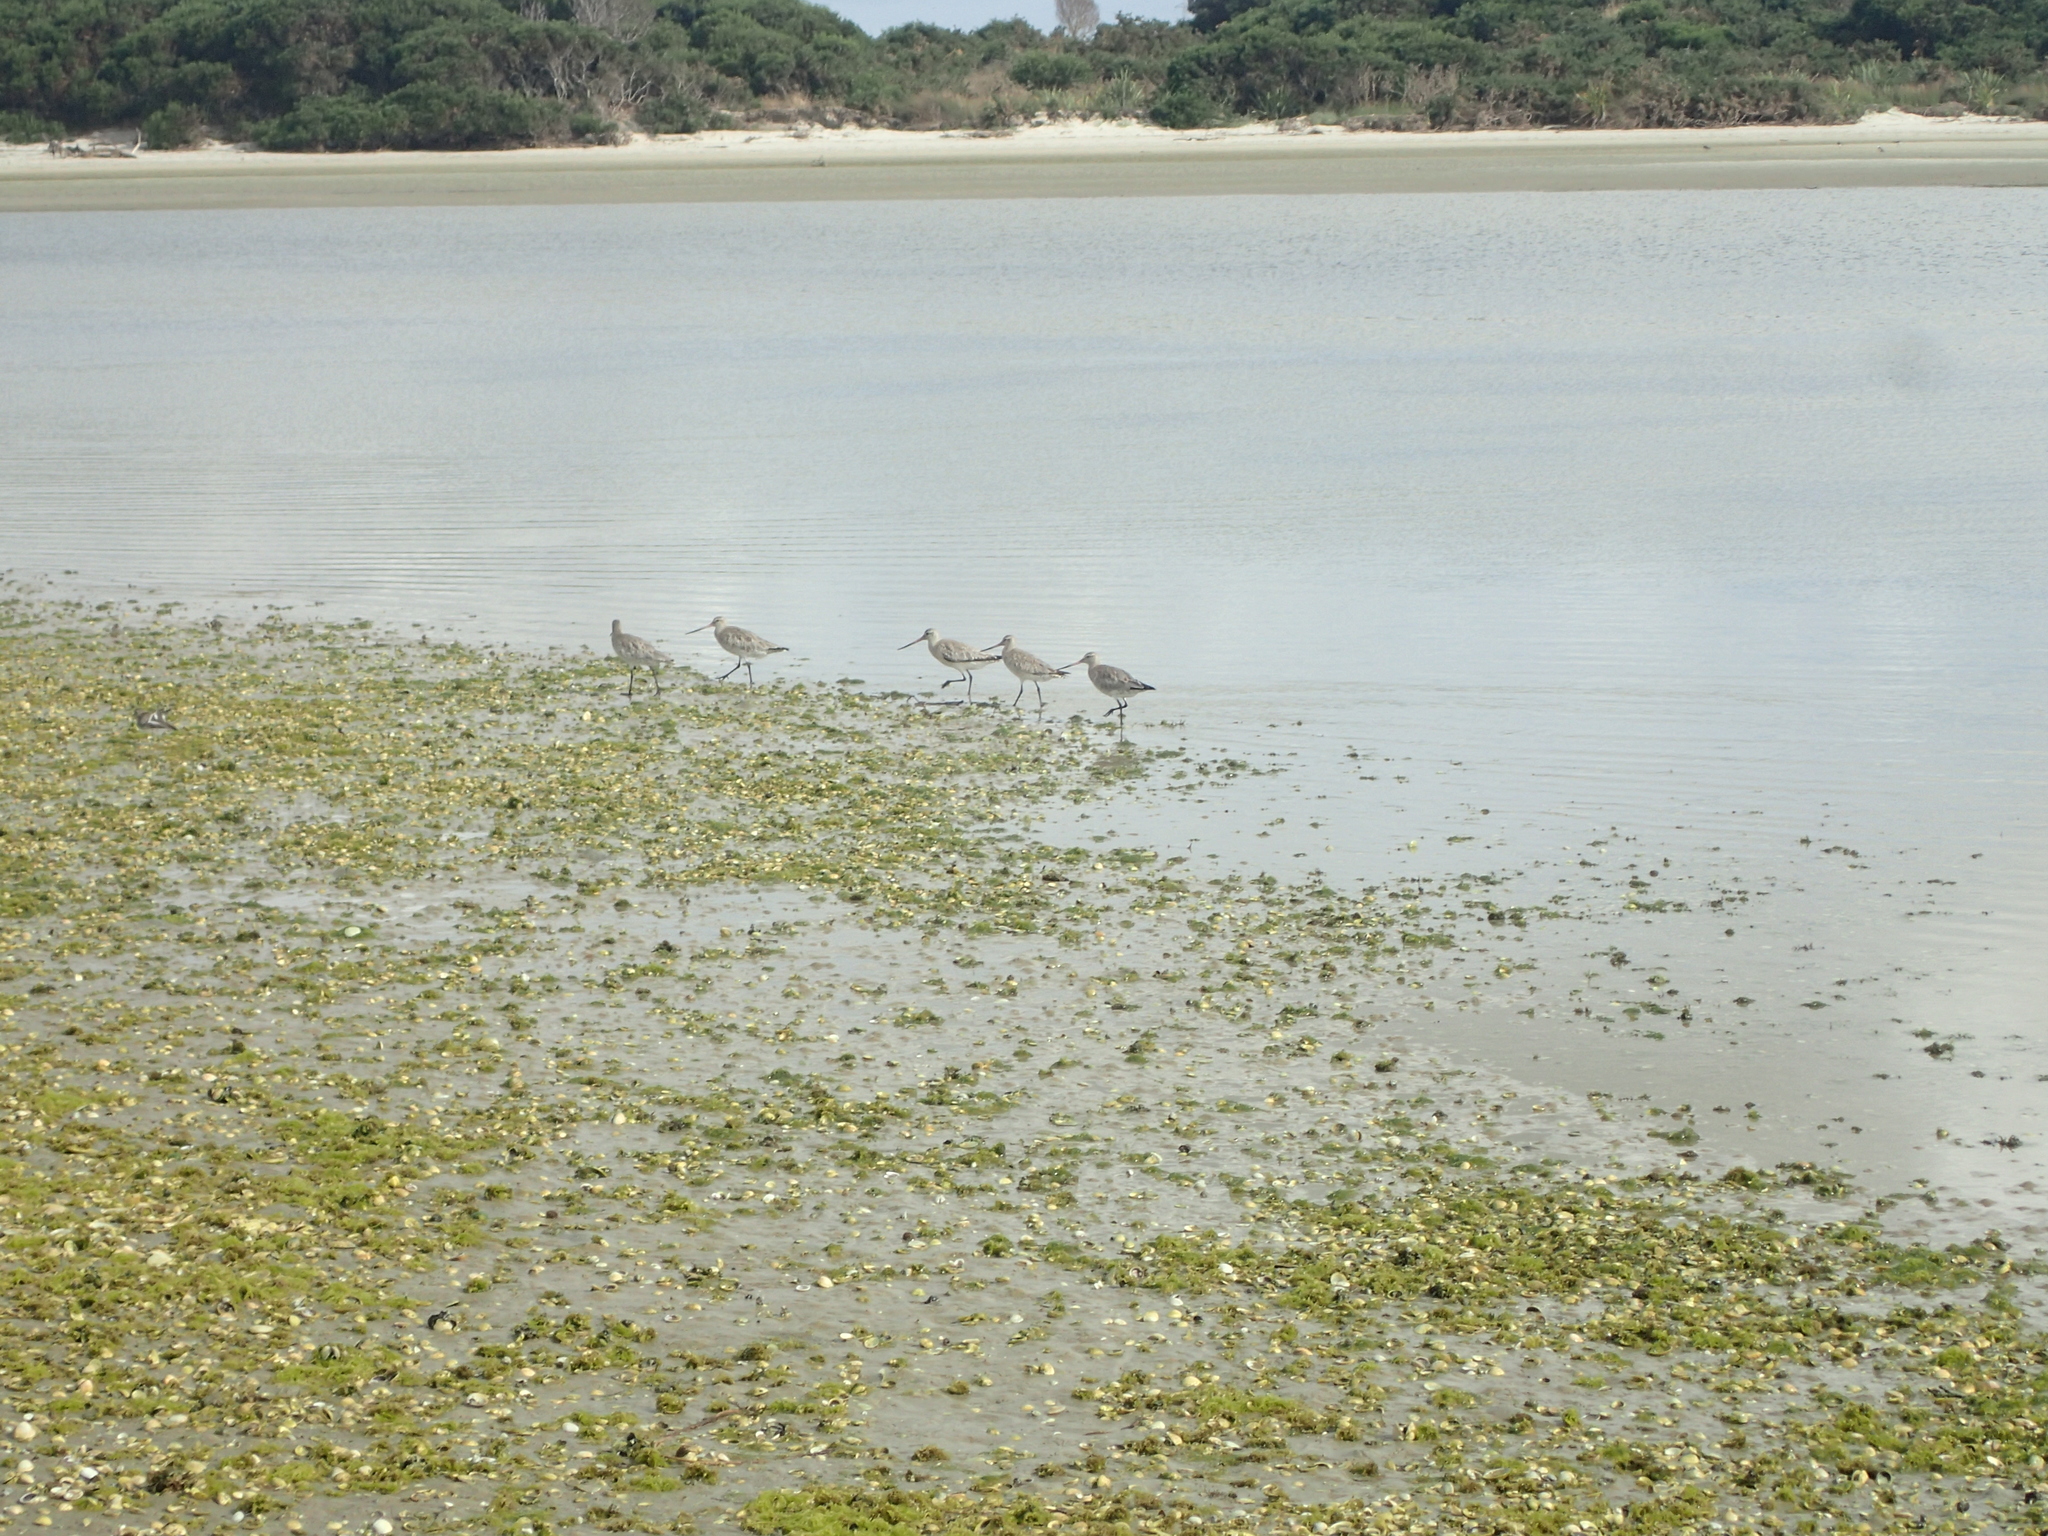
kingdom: Animalia
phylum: Chordata
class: Aves
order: Charadriiformes
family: Scolopacidae
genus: Limosa
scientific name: Limosa lapponica
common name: Bar-tailed godwit
